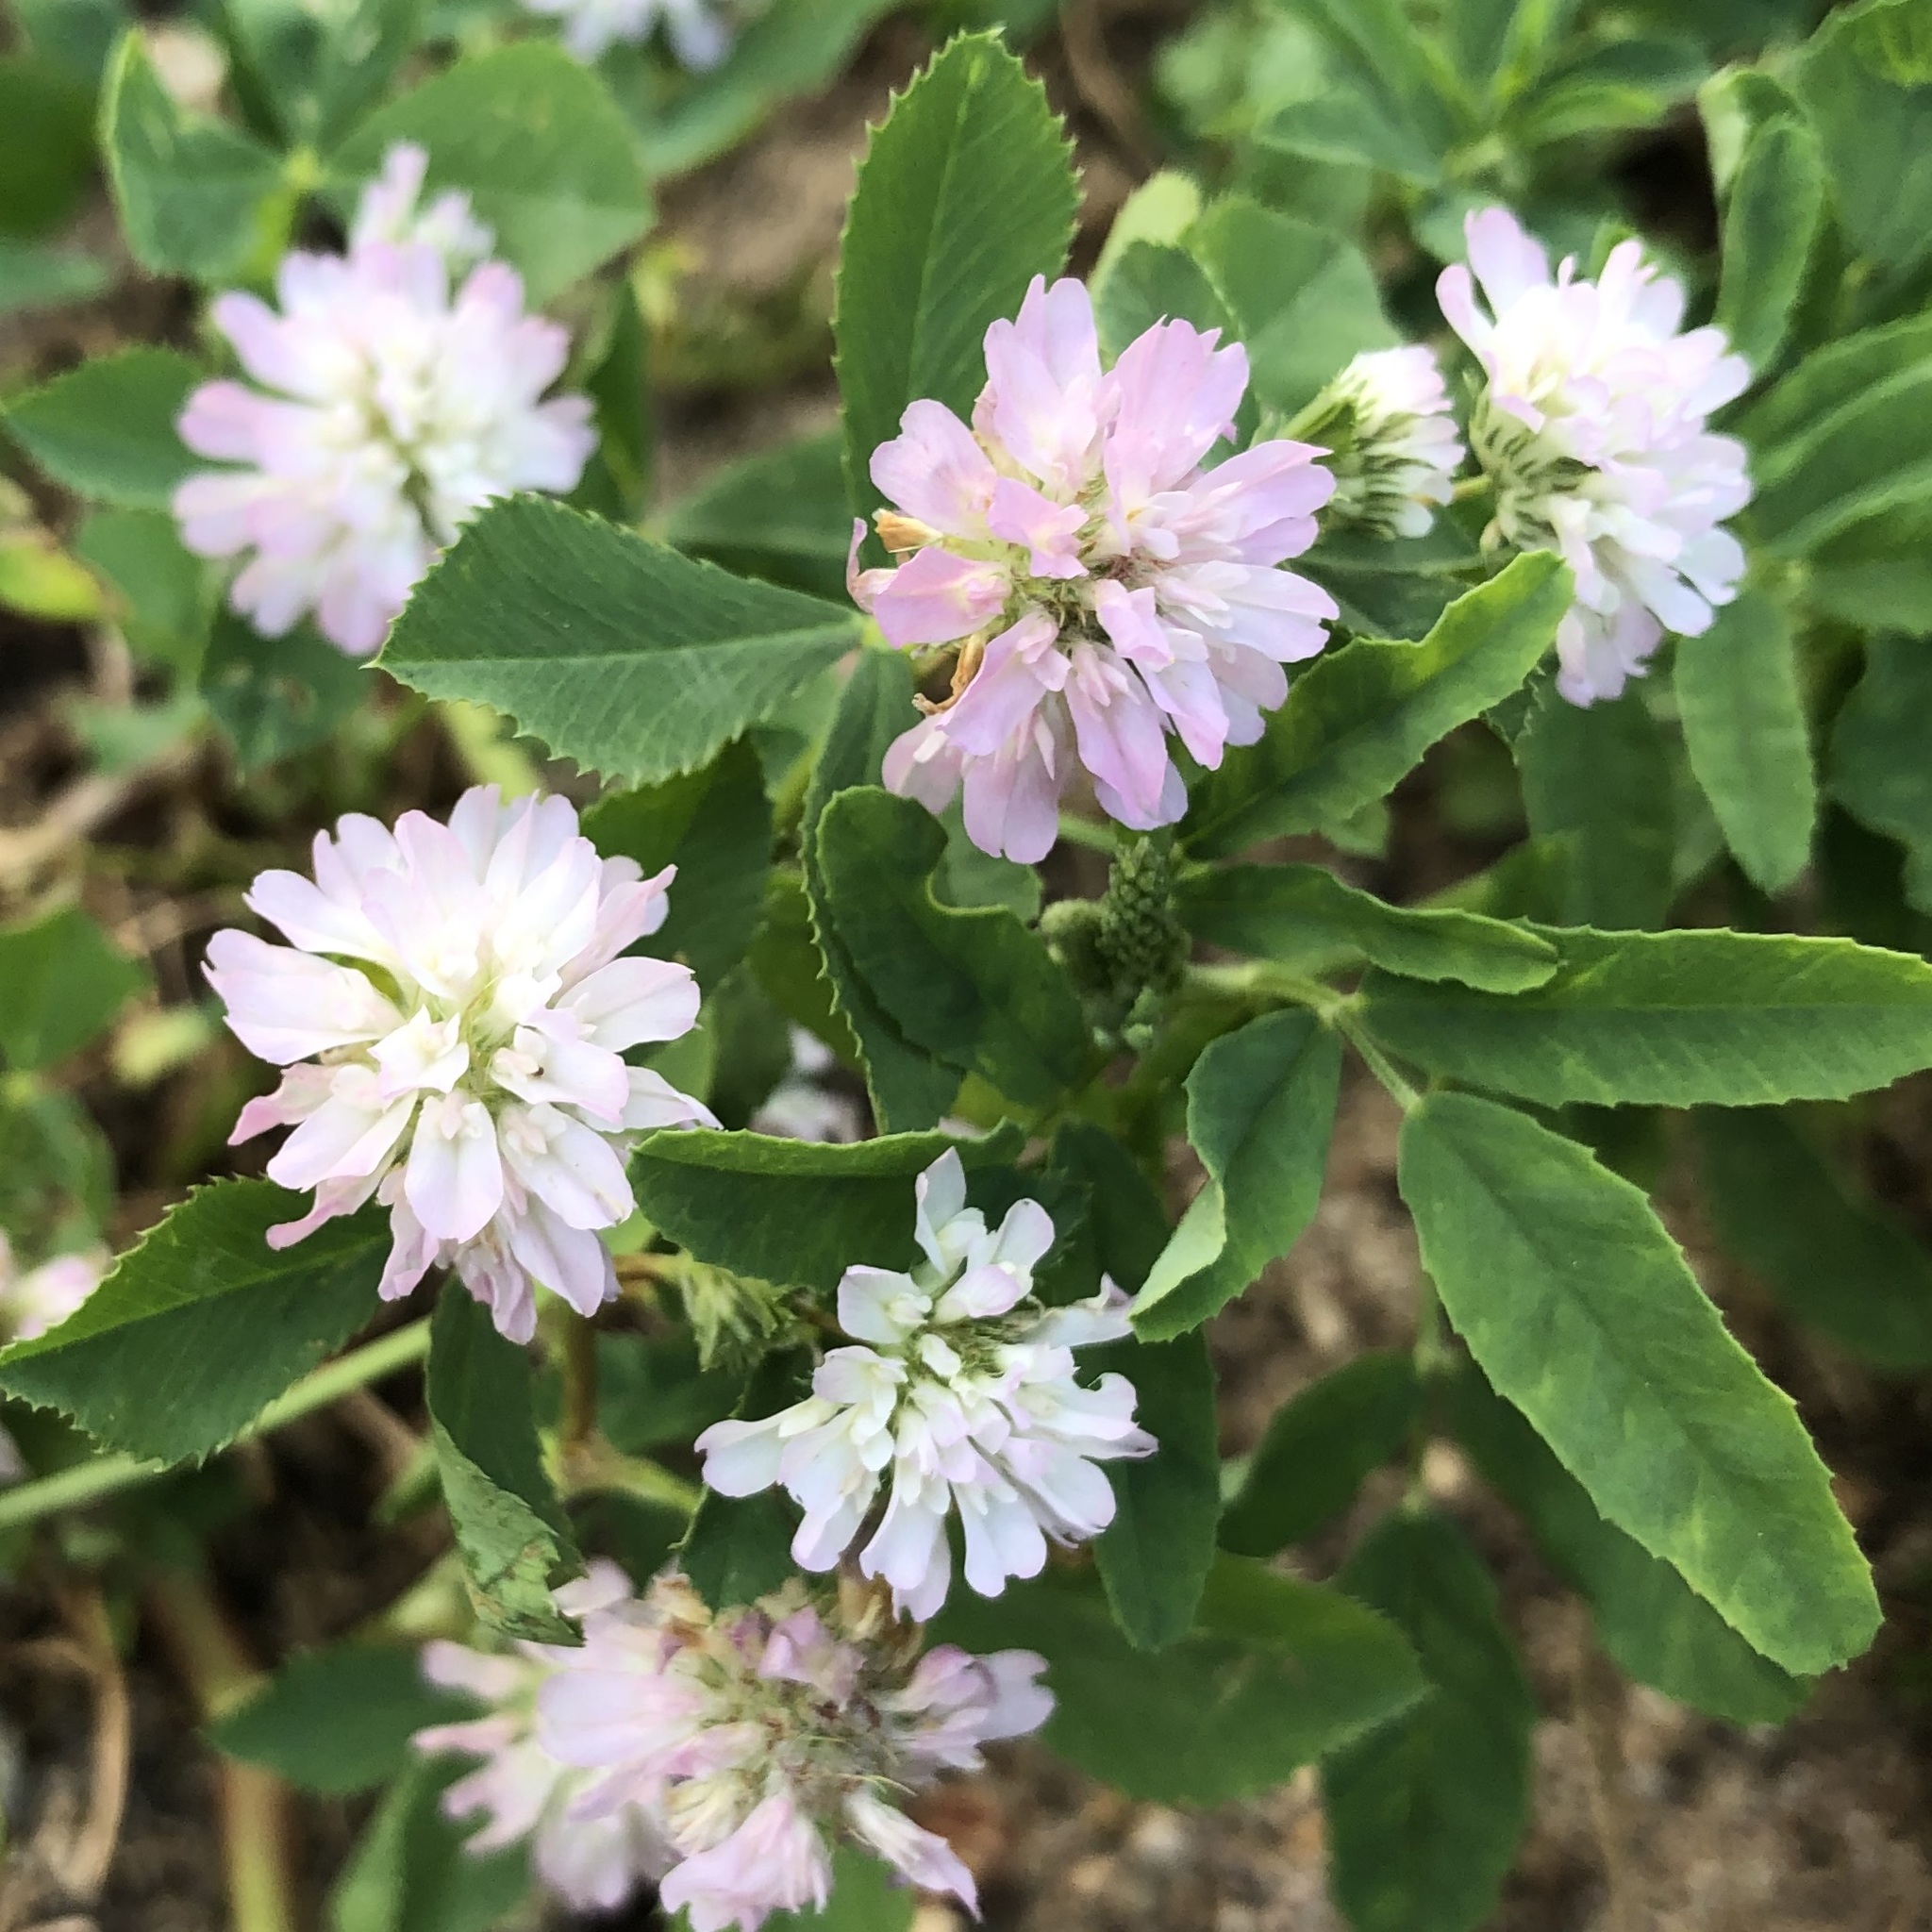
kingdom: Plantae
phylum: Tracheophyta
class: Magnoliopsida
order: Fabales
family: Fabaceae
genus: Trifolium
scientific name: Trifolium resupinatum
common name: Reversed clover
